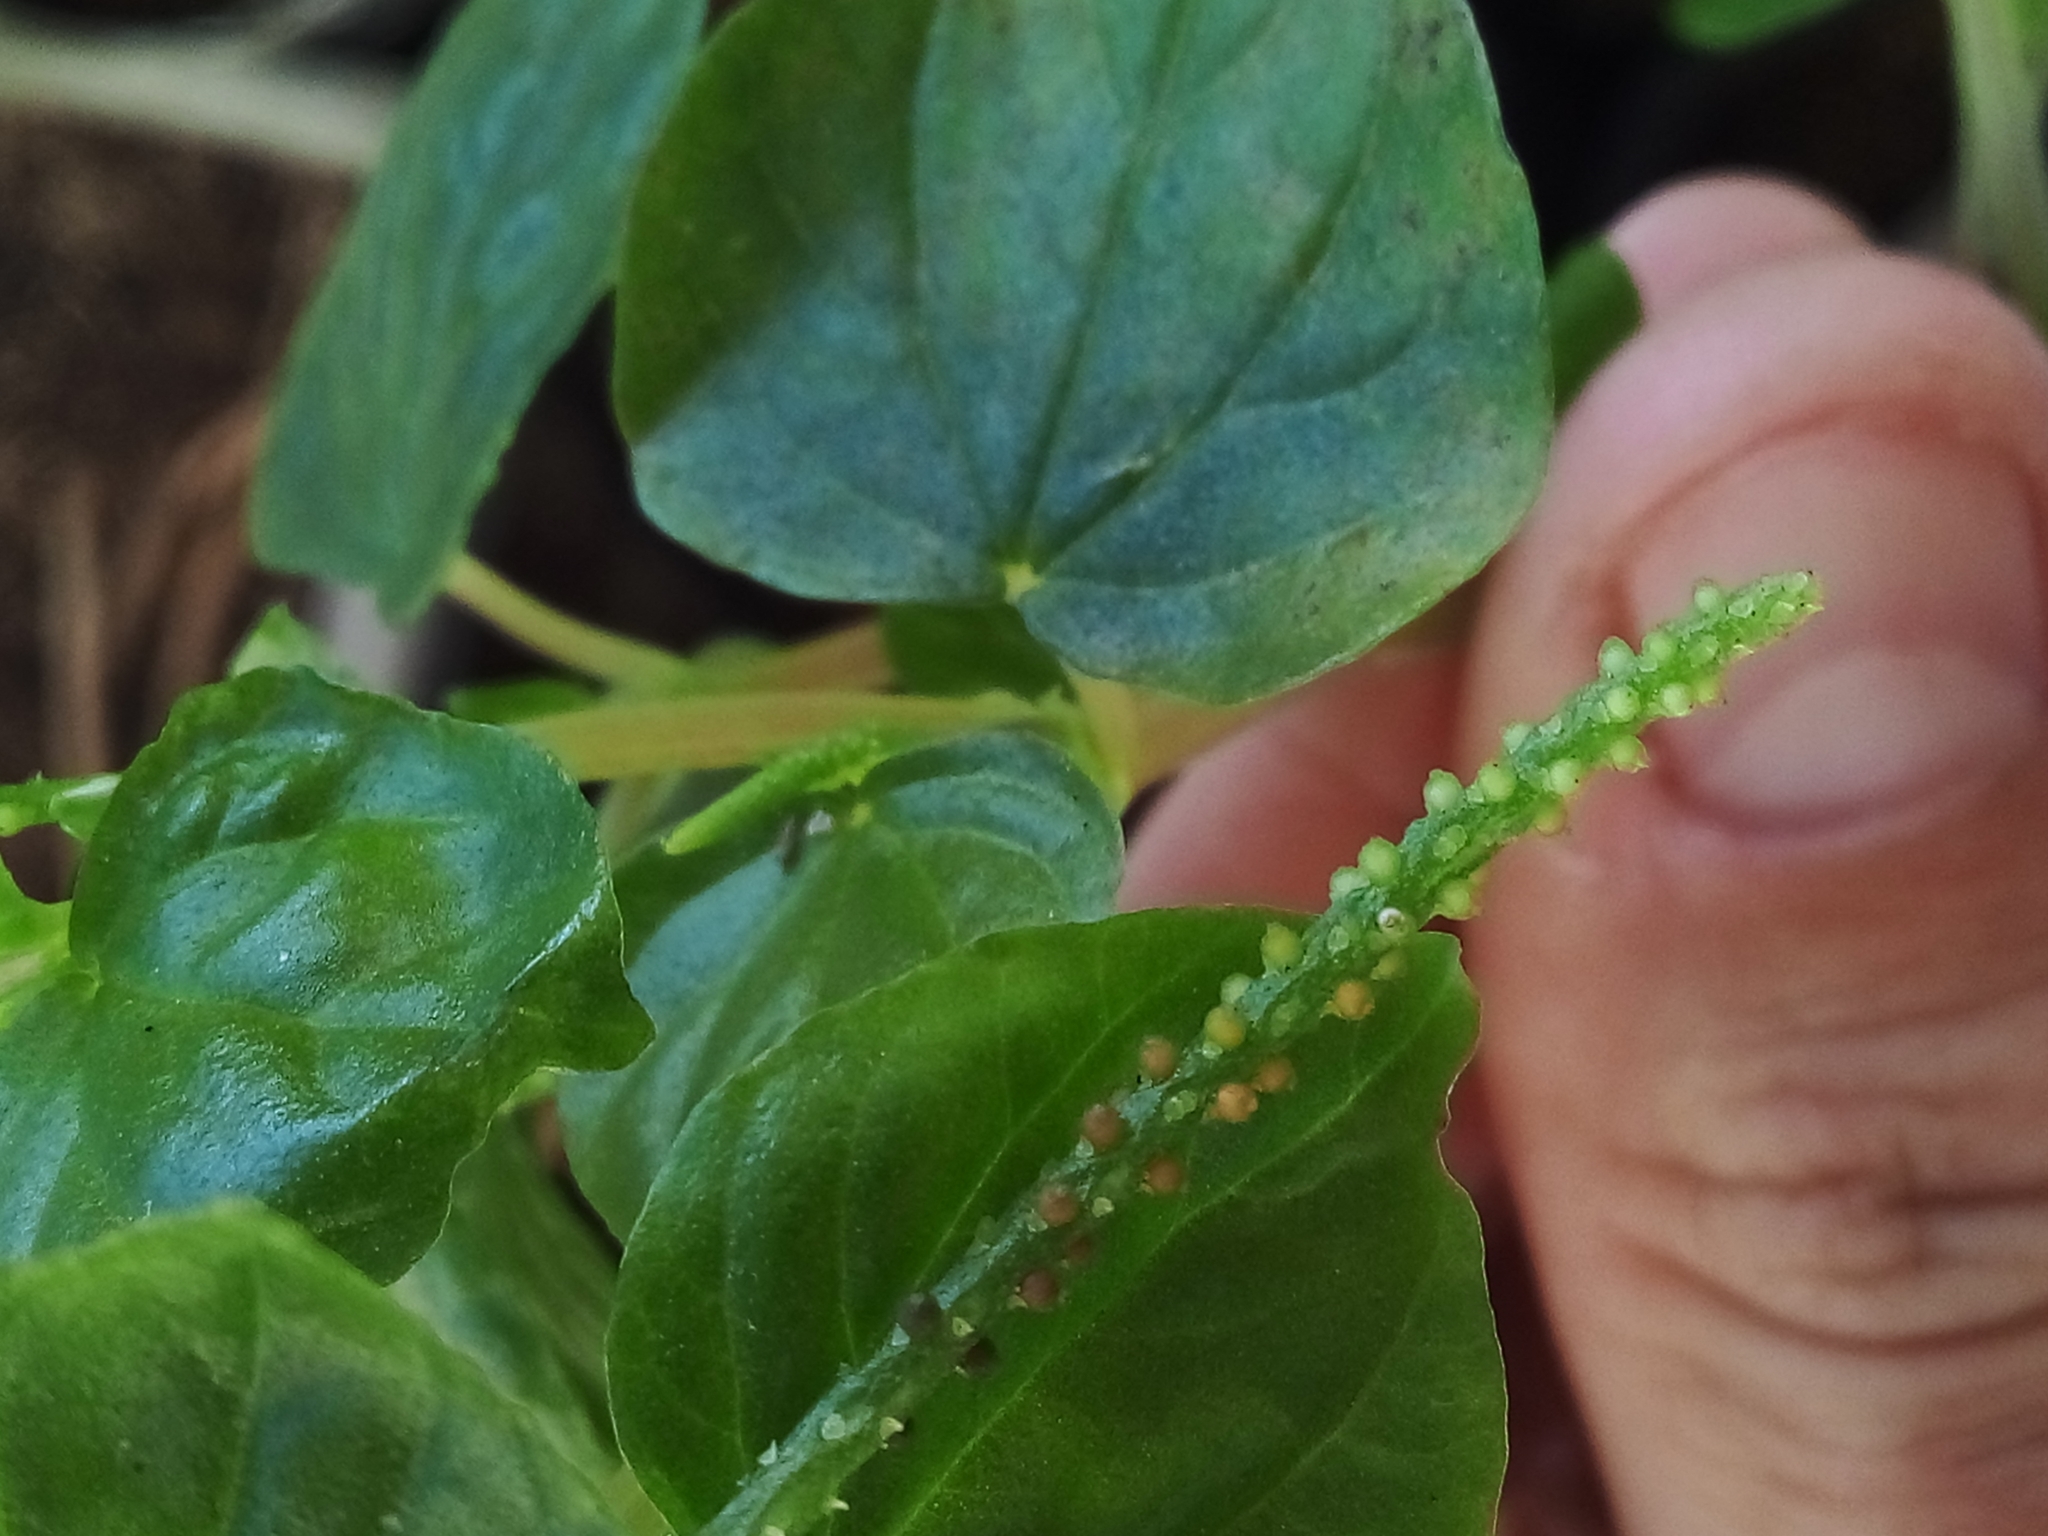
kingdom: Plantae
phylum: Tracheophyta
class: Magnoliopsida
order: Piperales
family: Piperaceae
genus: Peperomia
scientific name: Peperomia pellucida
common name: Man to man
